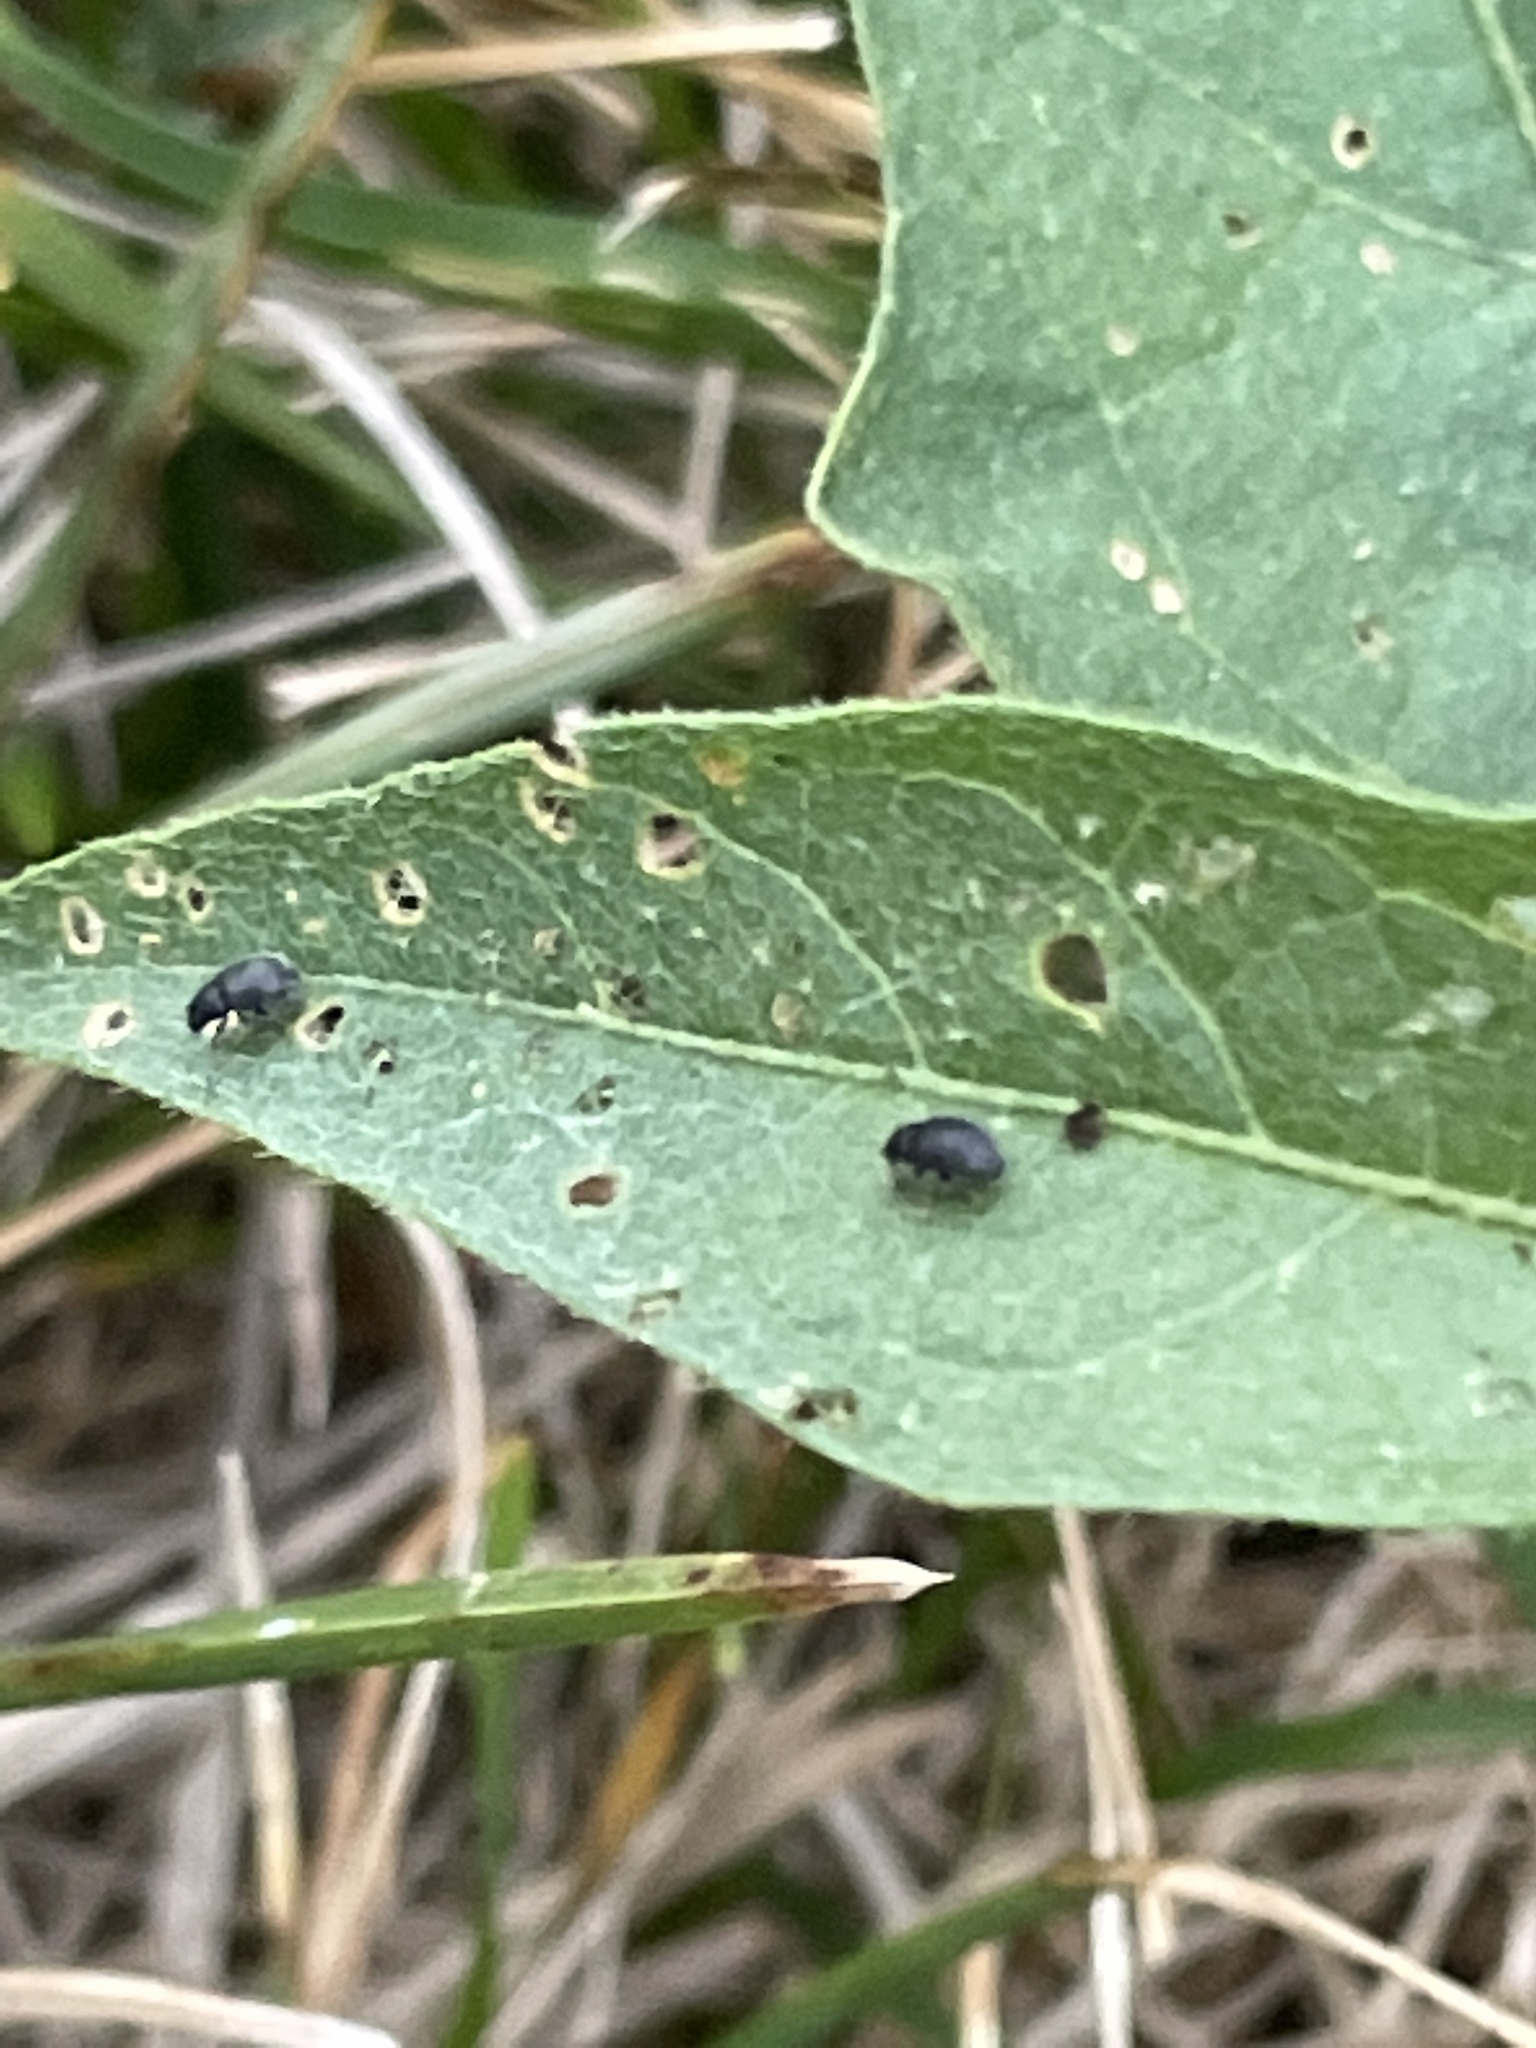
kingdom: Animalia
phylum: Arthropoda
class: Insecta
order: Coleoptera
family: Chrysomelidae
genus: Epitrix
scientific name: Epitrix fuscula
